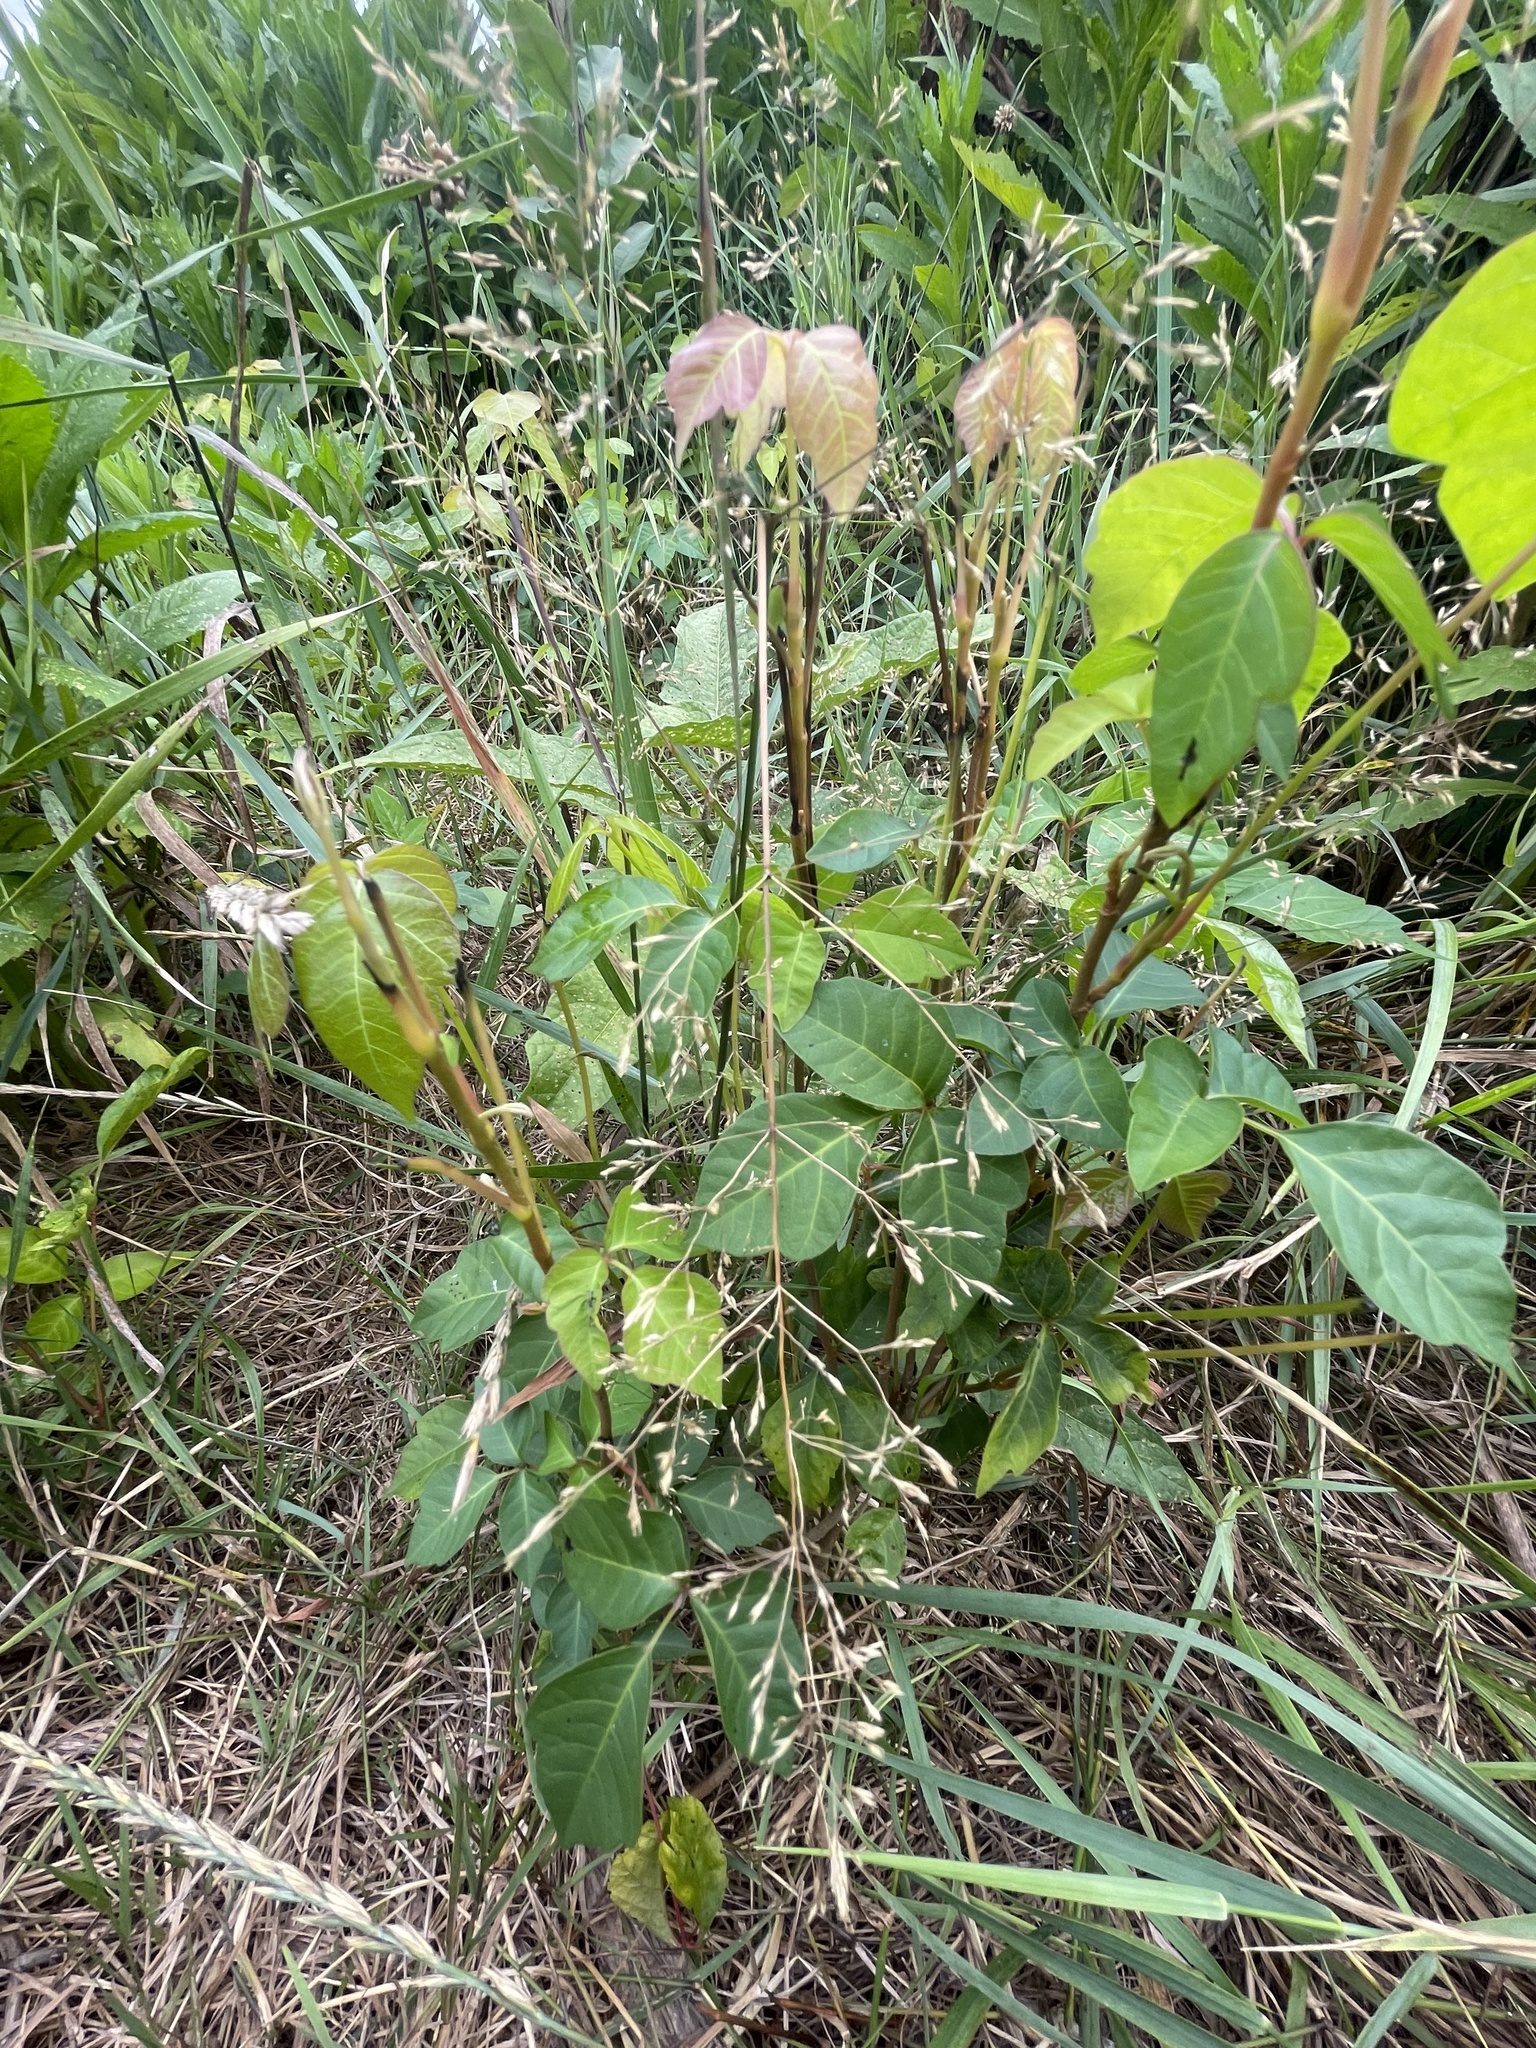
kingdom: Plantae
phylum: Tracheophyta
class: Magnoliopsida
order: Sapindales
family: Anacardiaceae
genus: Toxicodendron
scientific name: Toxicodendron radicans
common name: Poison ivy
